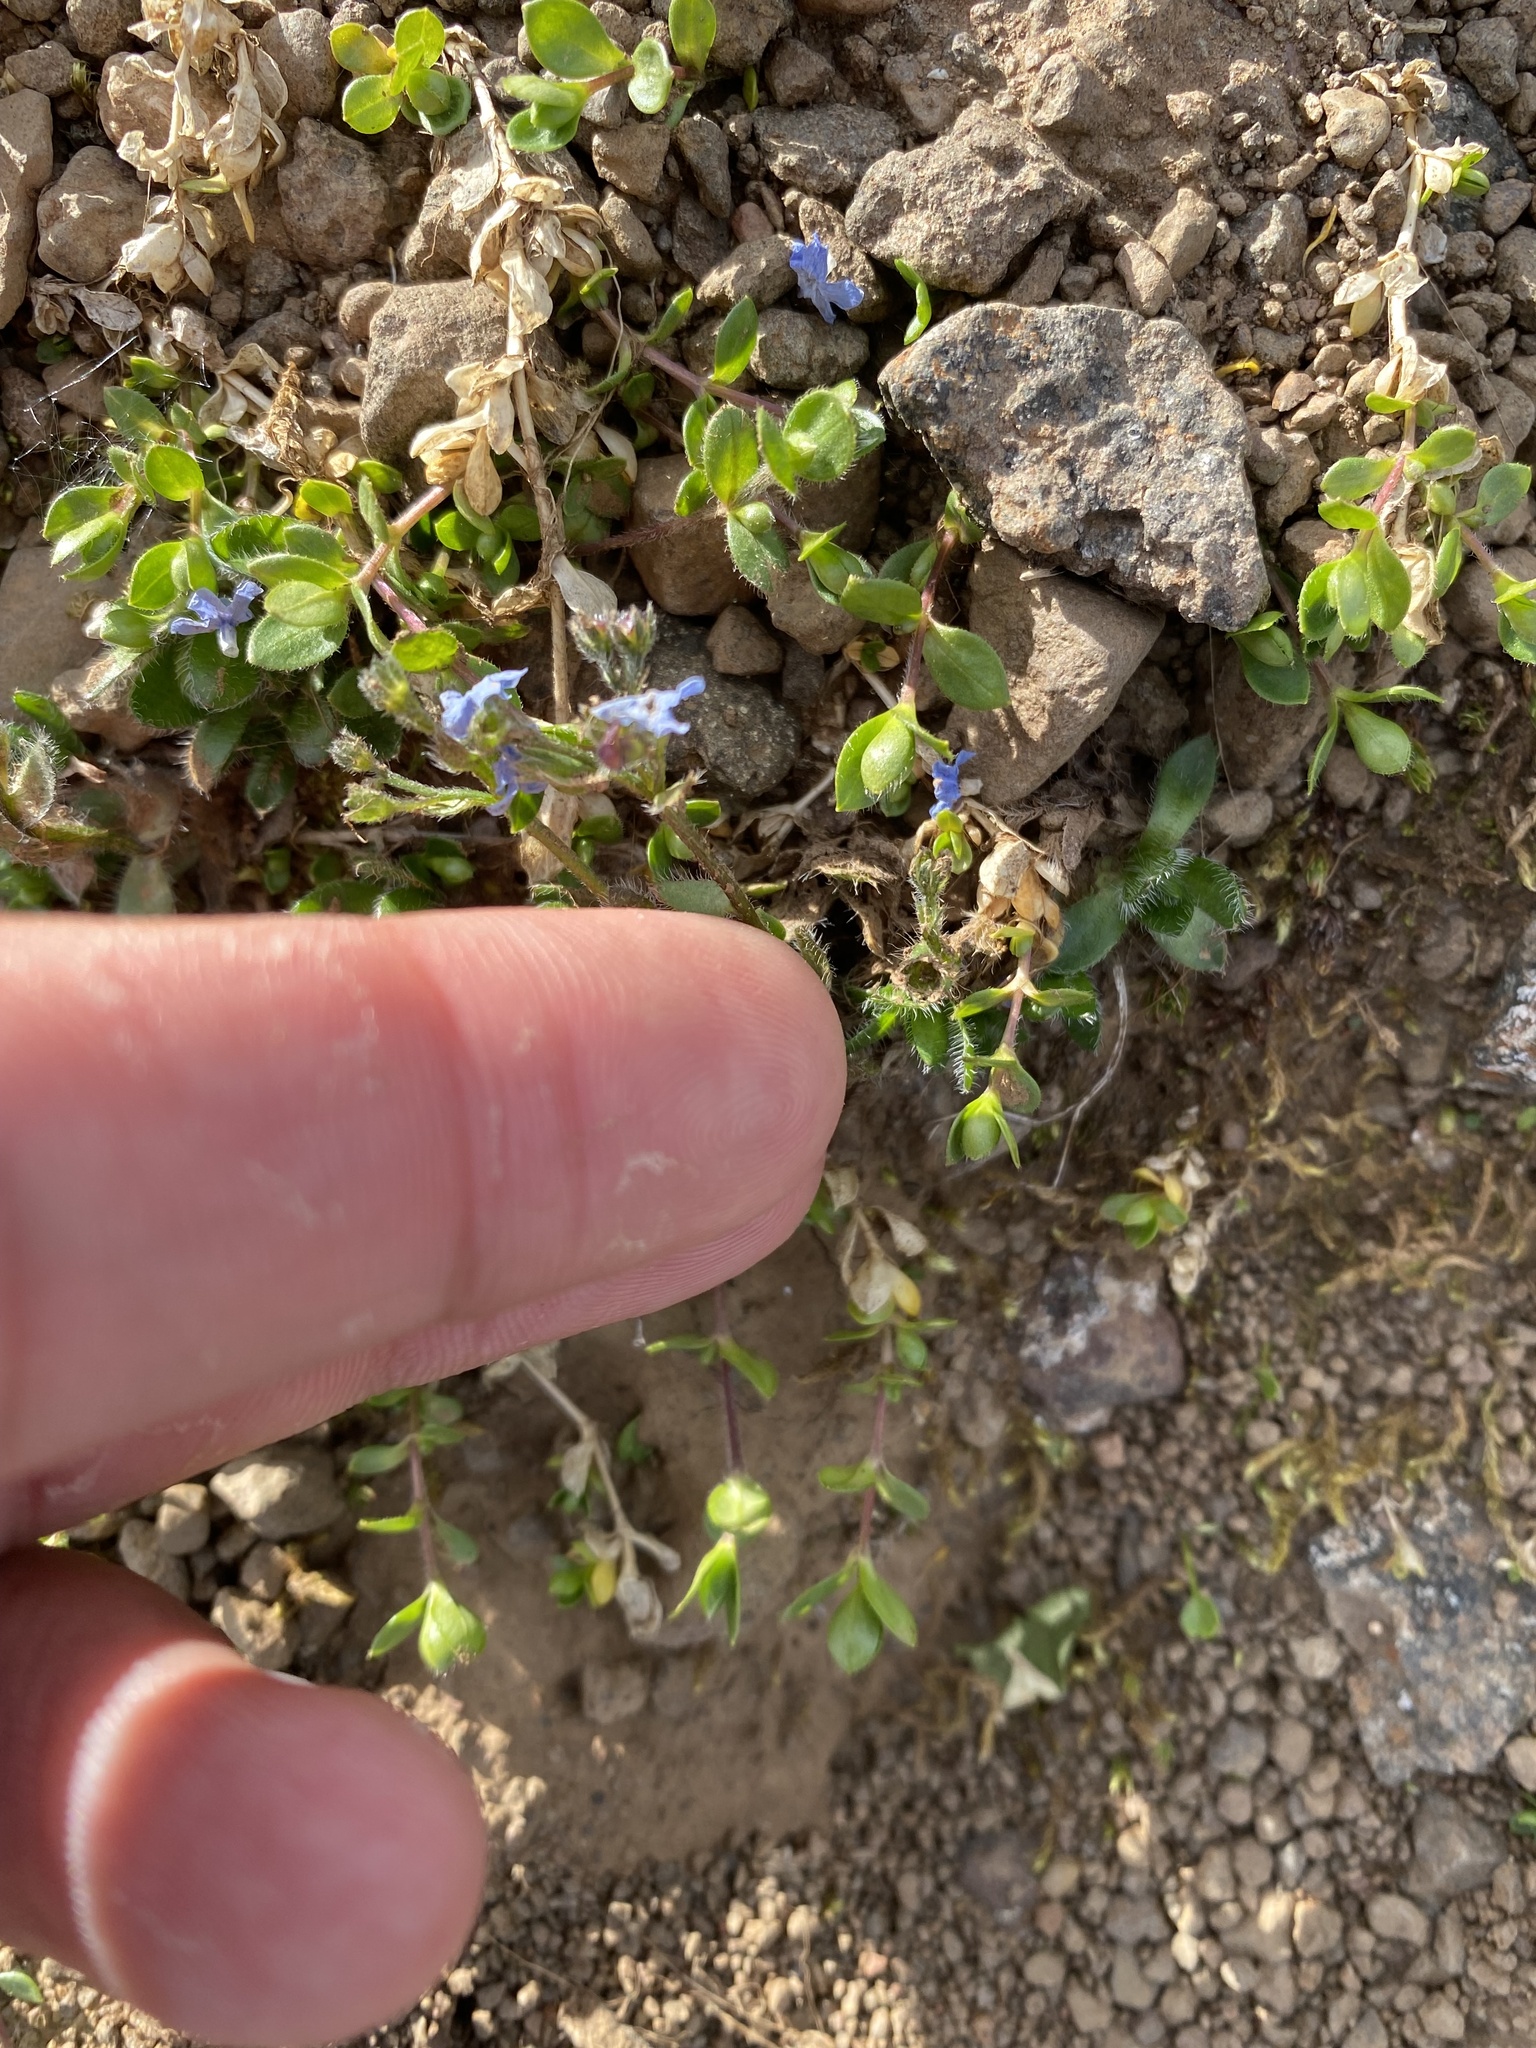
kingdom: Plantae
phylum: Tracheophyta
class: Magnoliopsida
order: Boraginales
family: Boraginaceae
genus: Eritrichium
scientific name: Eritrichium villosum
